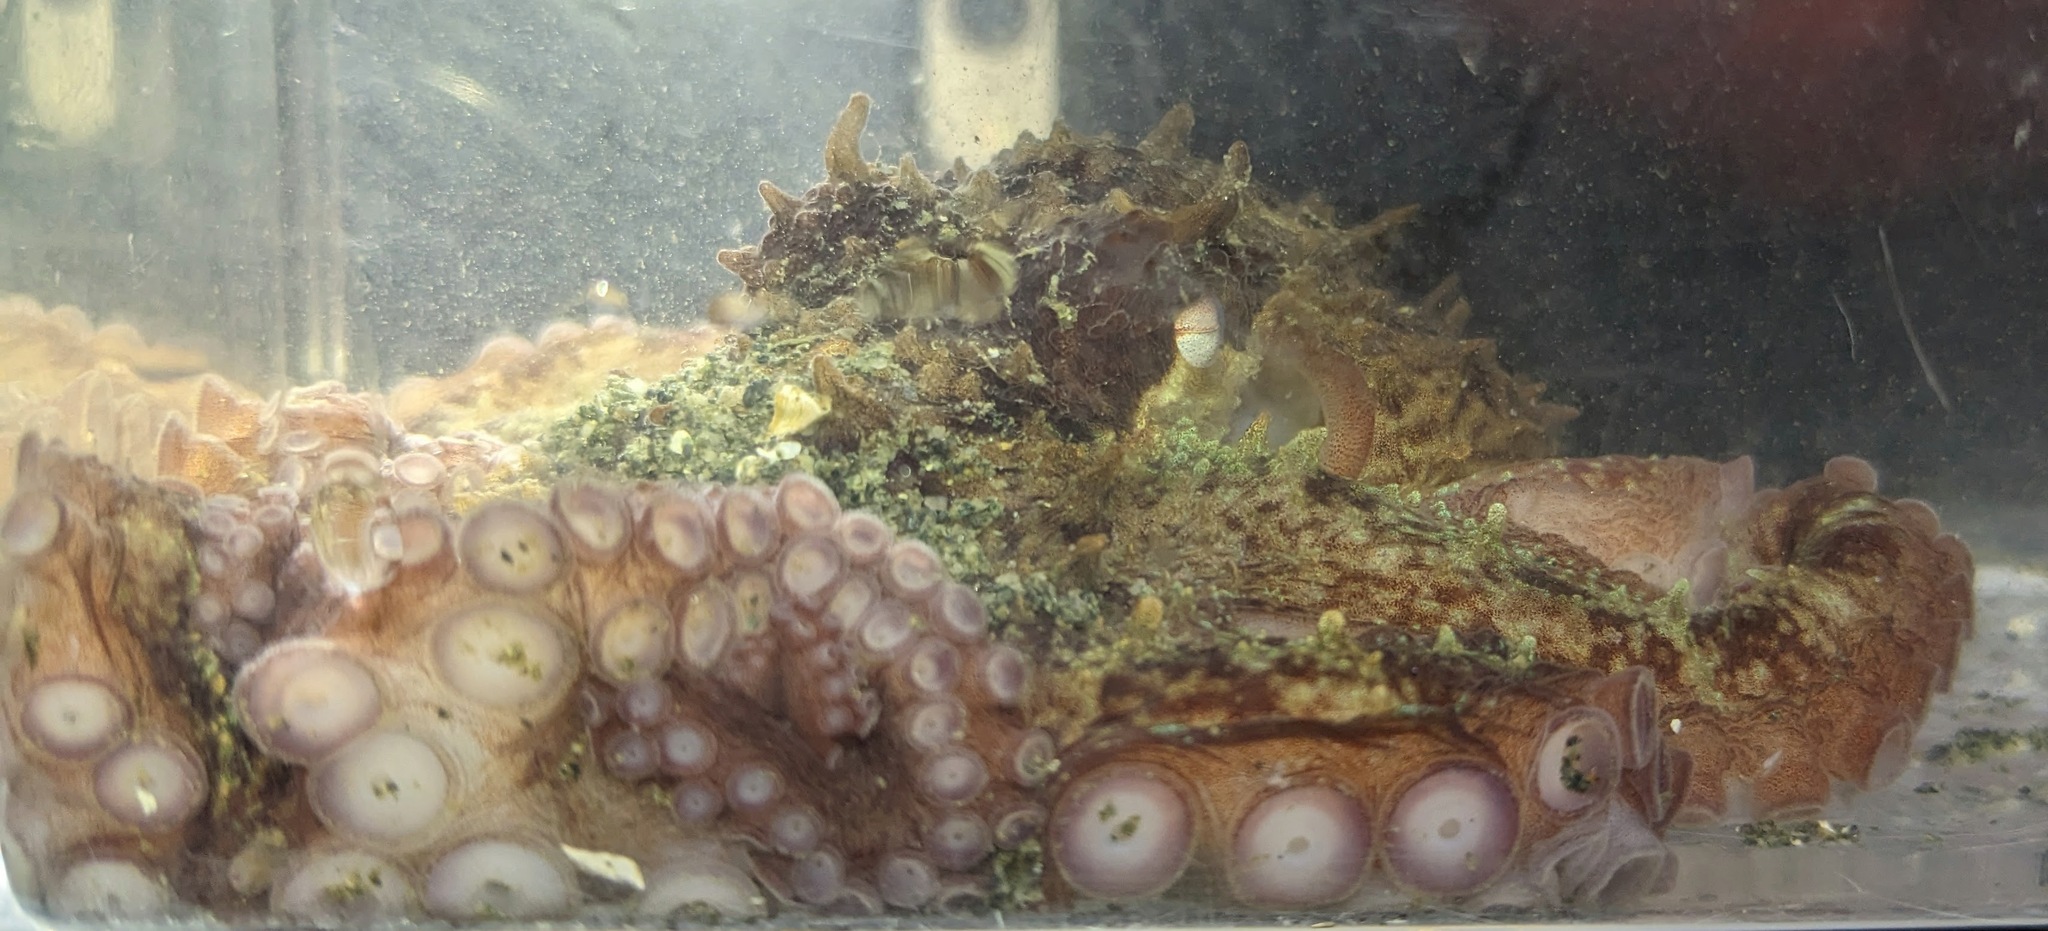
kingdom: Animalia
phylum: Mollusca
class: Cephalopoda
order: Octopoda
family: Enteroctopodidae
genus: Enteroctopus
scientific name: Enteroctopus dofleini
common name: Giant north pacific octopus
